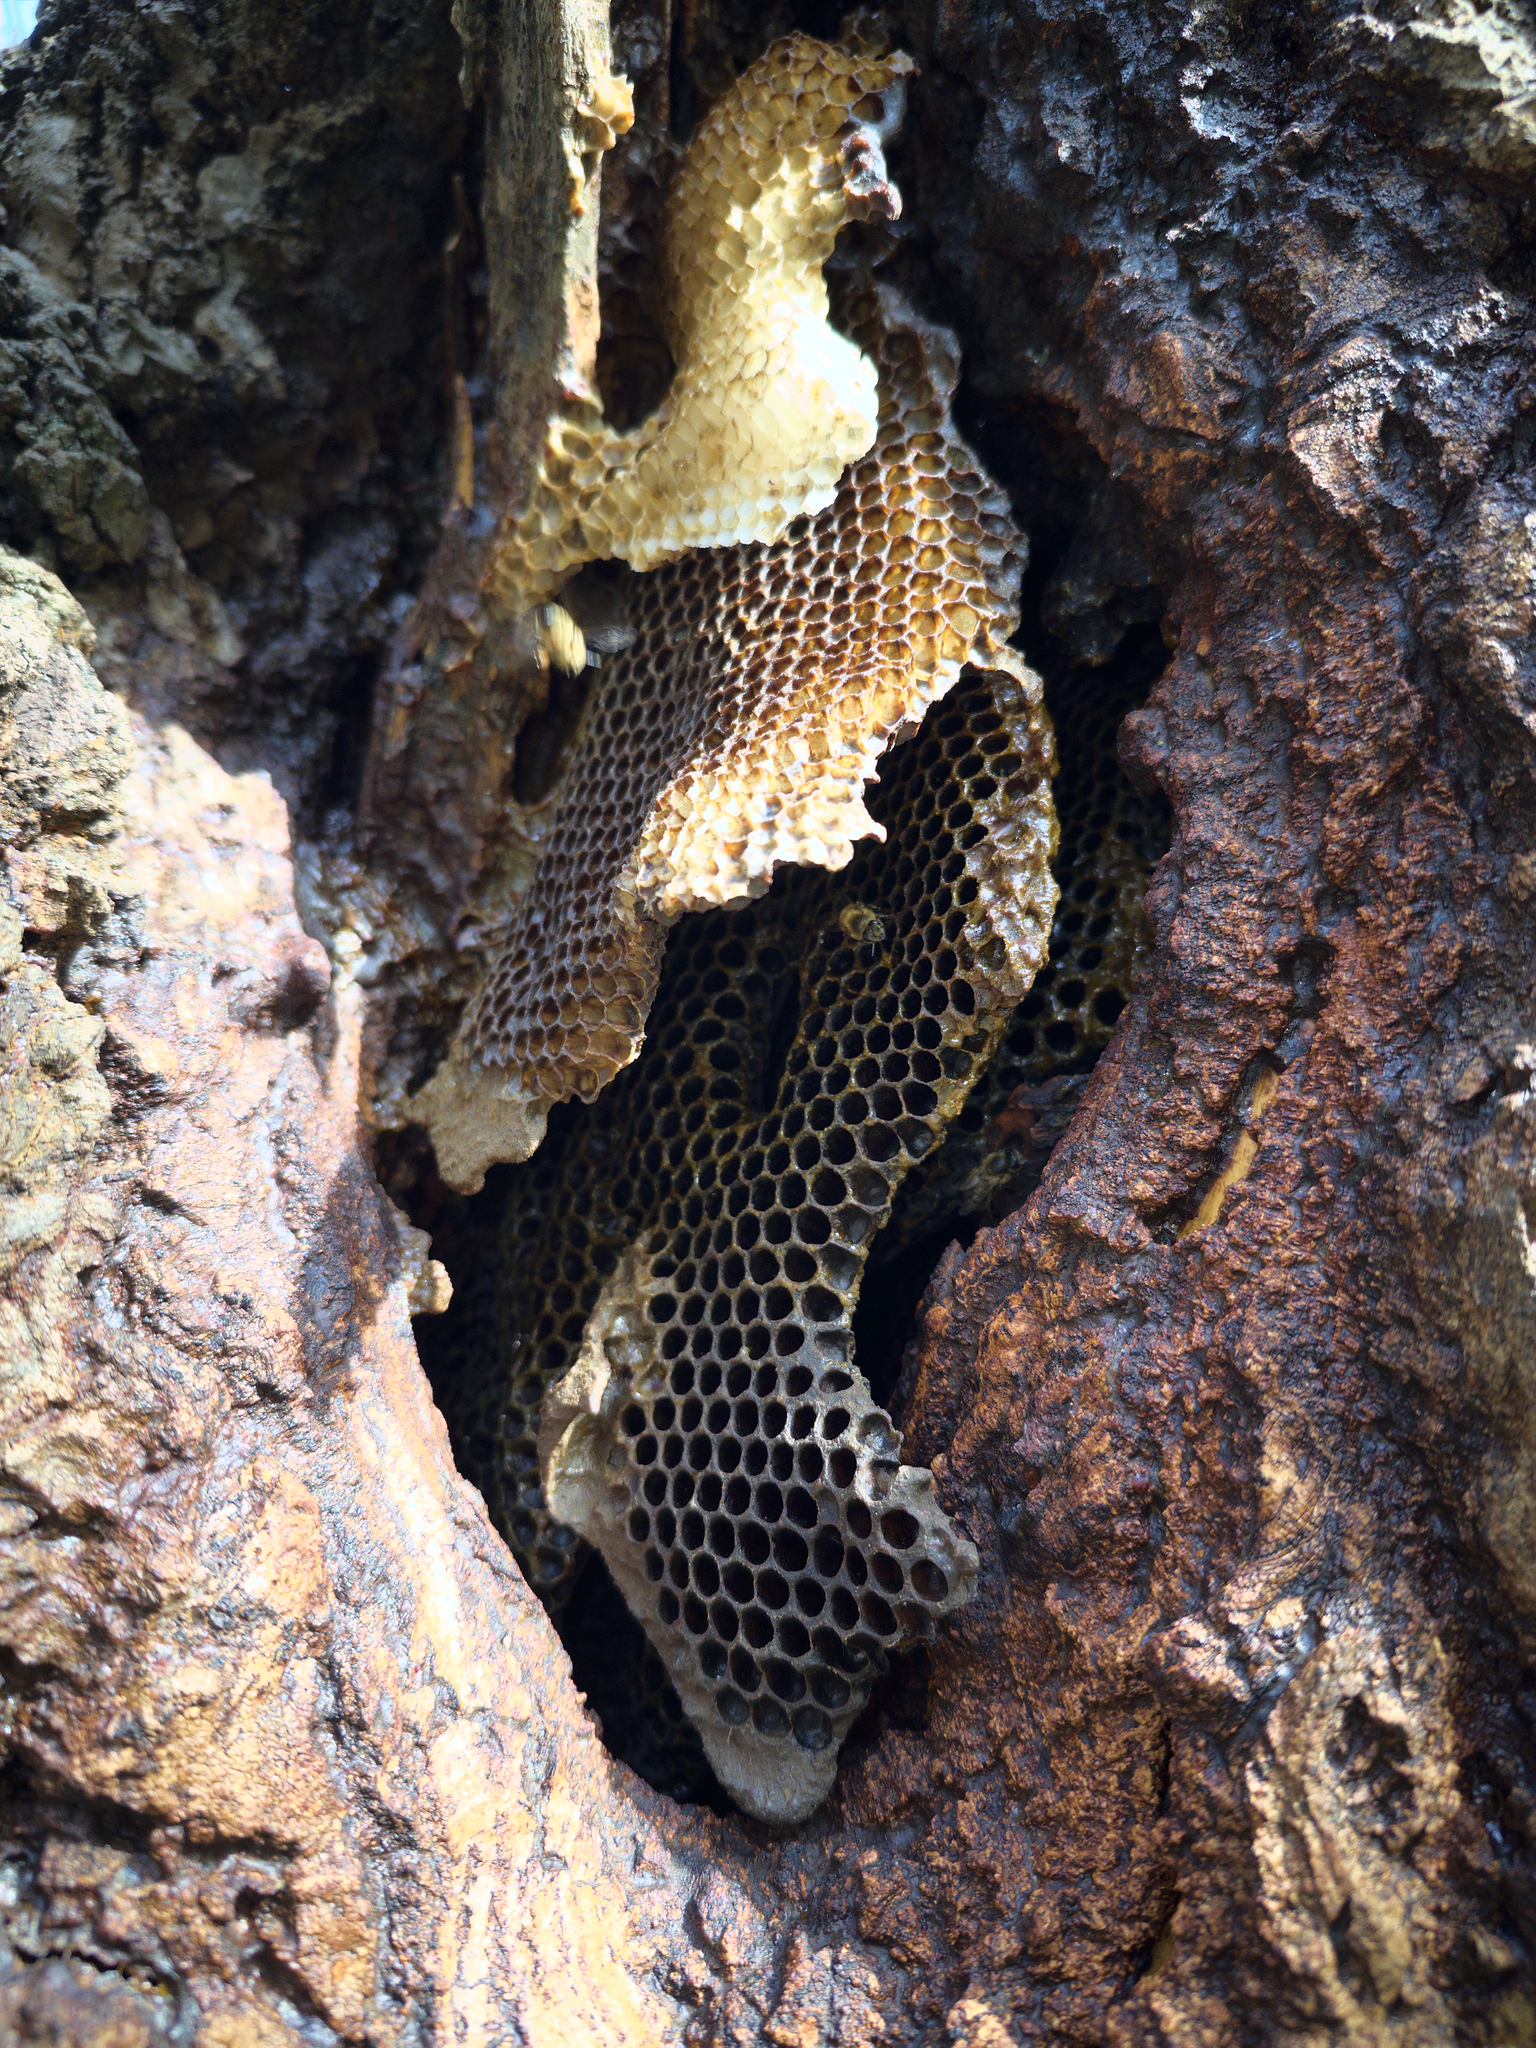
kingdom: Animalia
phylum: Arthropoda
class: Insecta
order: Hymenoptera
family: Apidae
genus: Apis
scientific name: Apis mellifera
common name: Honey bee
